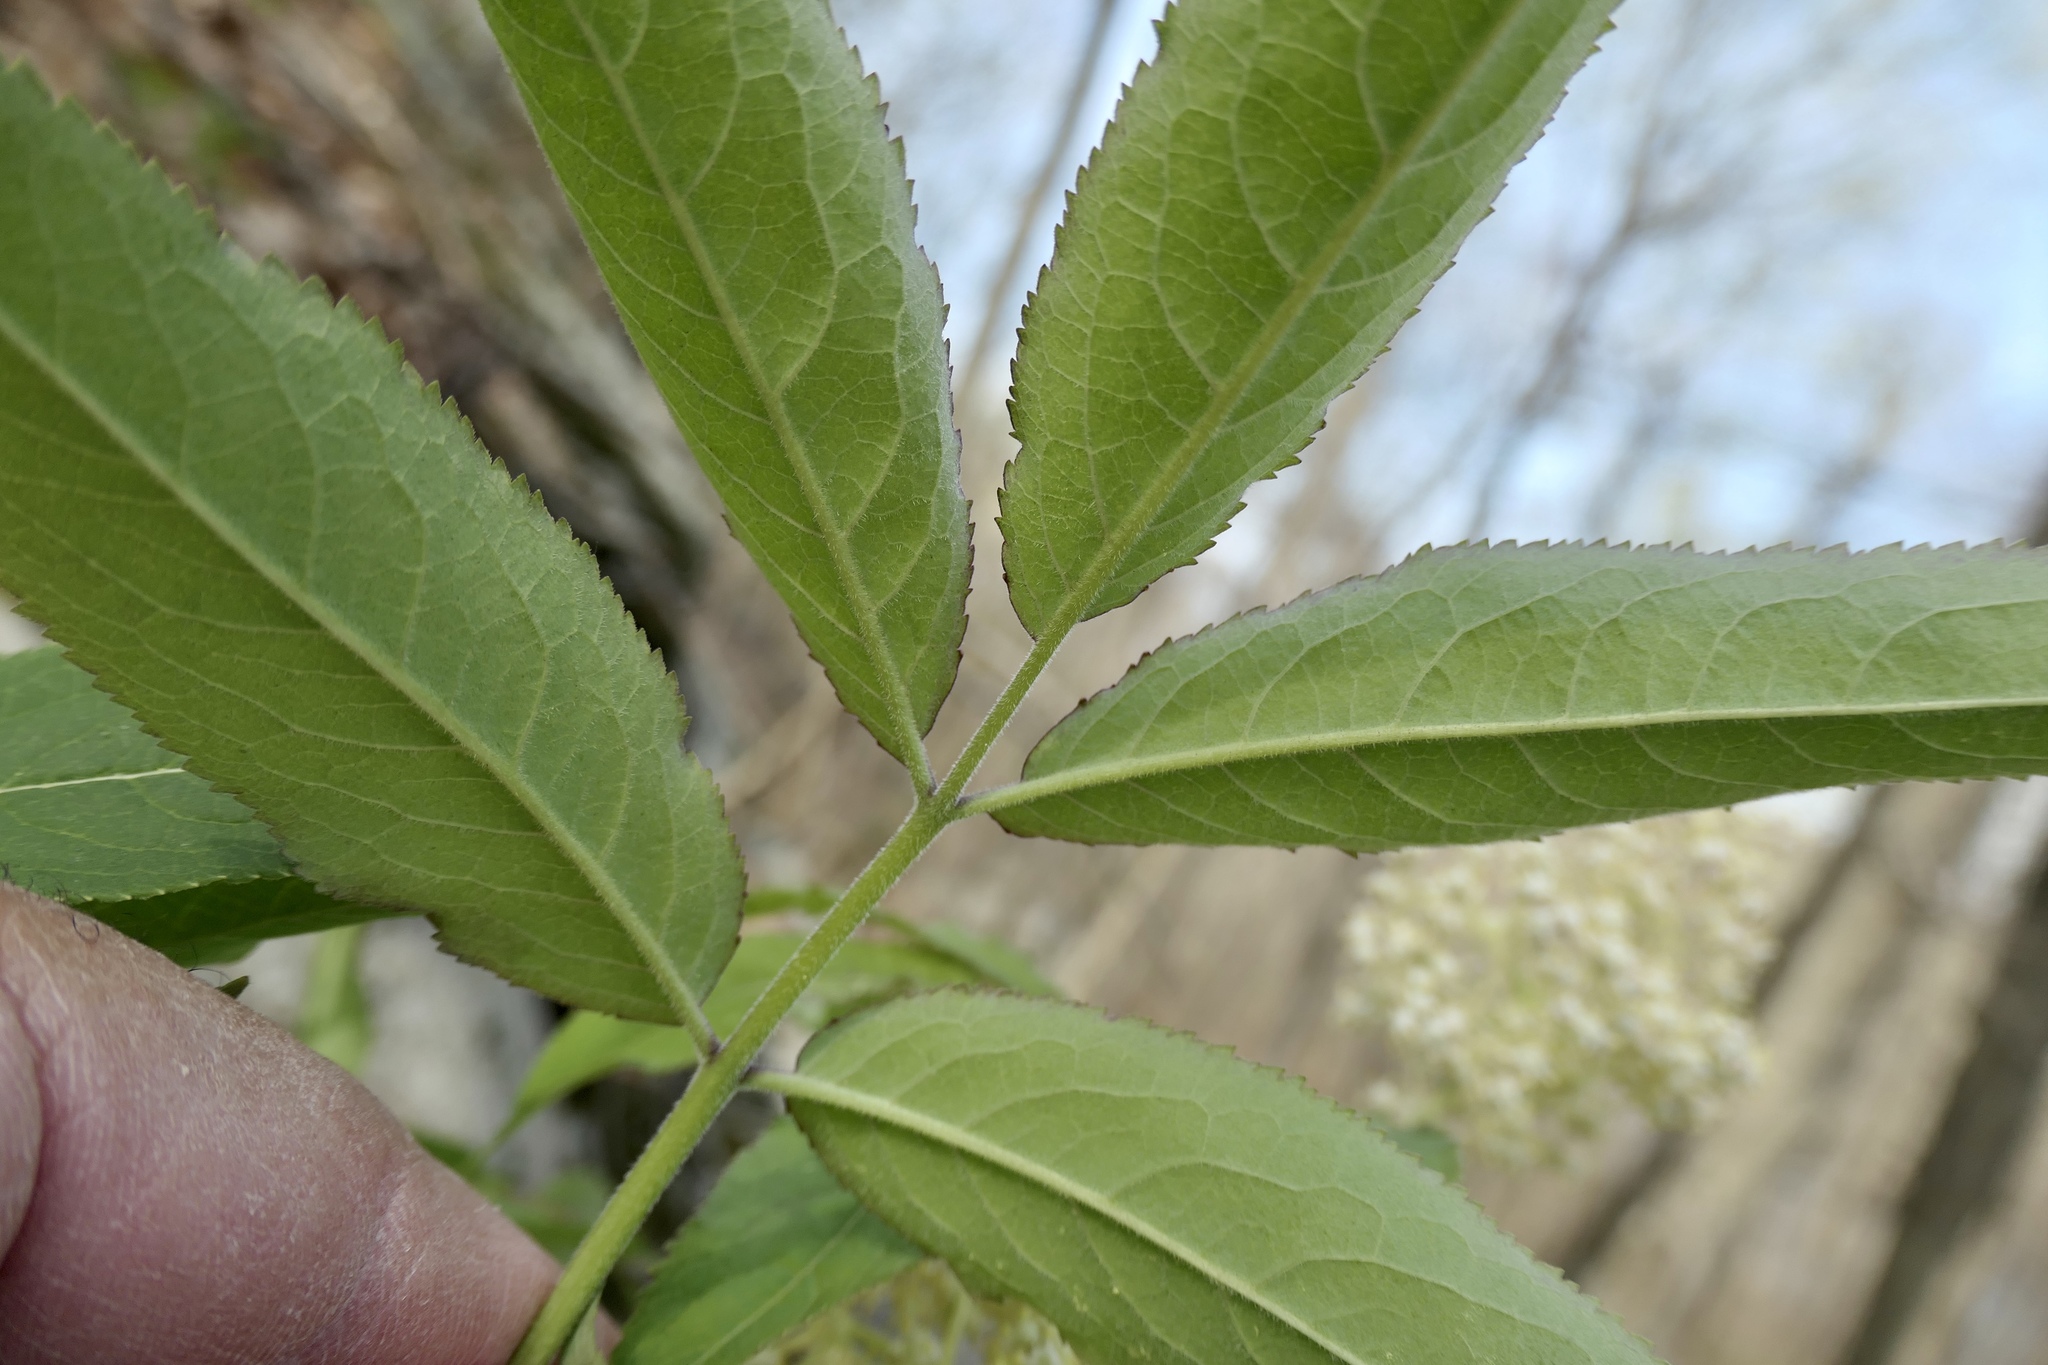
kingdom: Plantae
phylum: Tracheophyta
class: Magnoliopsida
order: Dipsacales
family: Viburnaceae
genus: Sambucus
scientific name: Sambucus racemosa
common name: Red-berried elder
